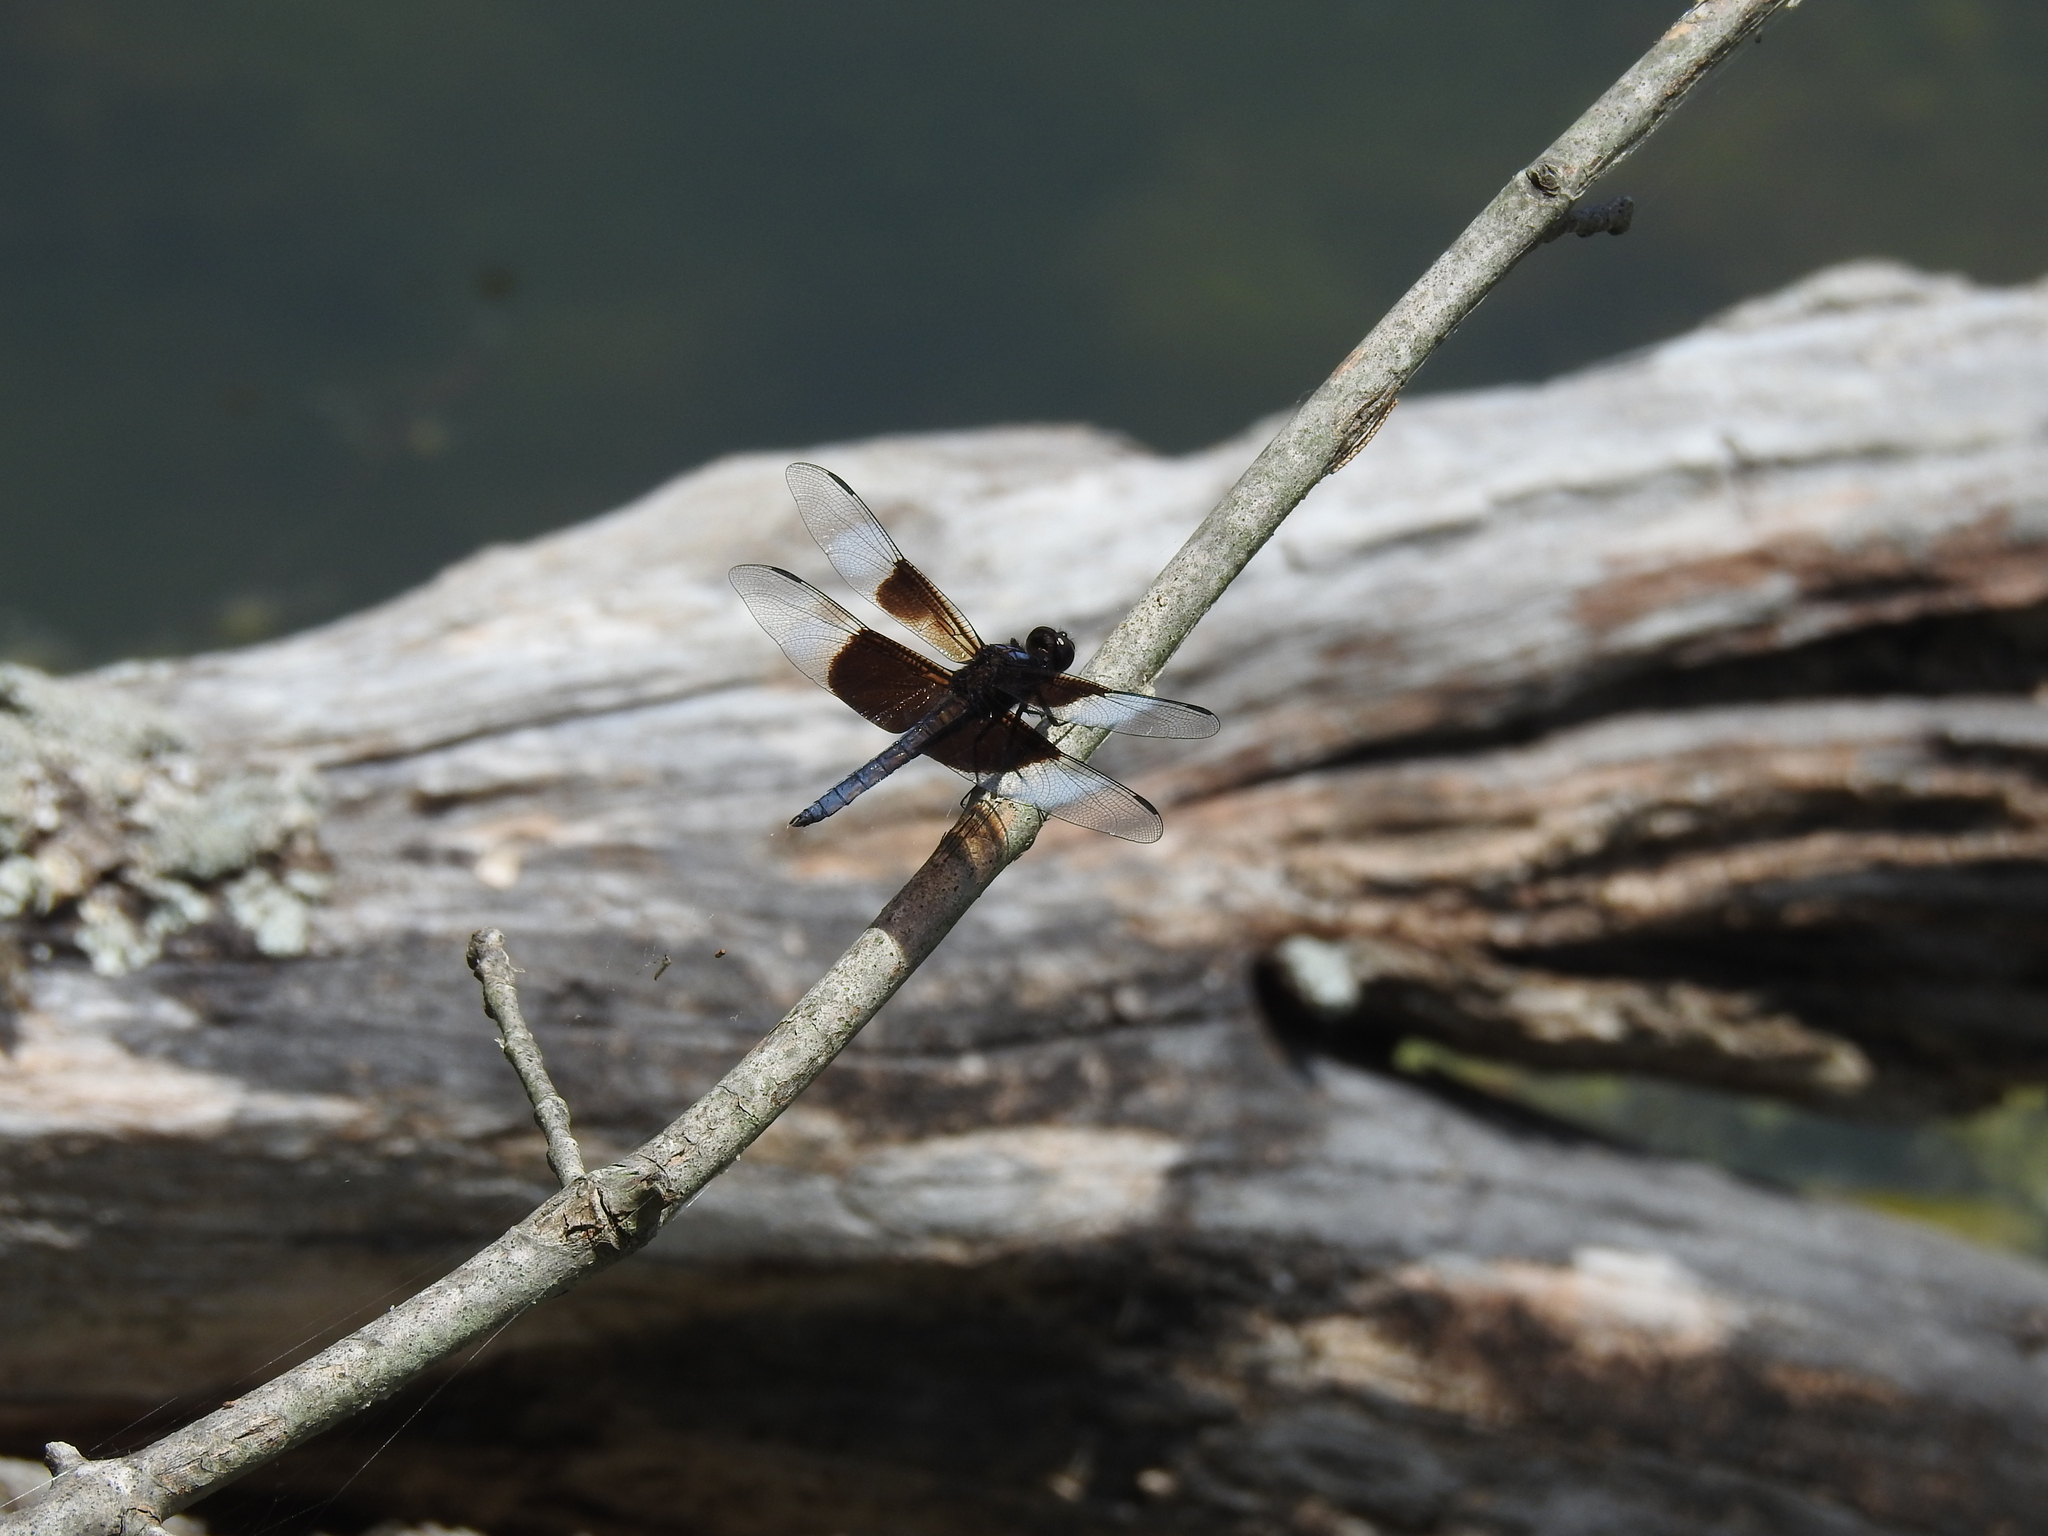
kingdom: Animalia
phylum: Arthropoda
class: Insecta
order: Odonata
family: Libellulidae
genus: Libellula
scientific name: Libellula luctuosa
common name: Widow skimmer
